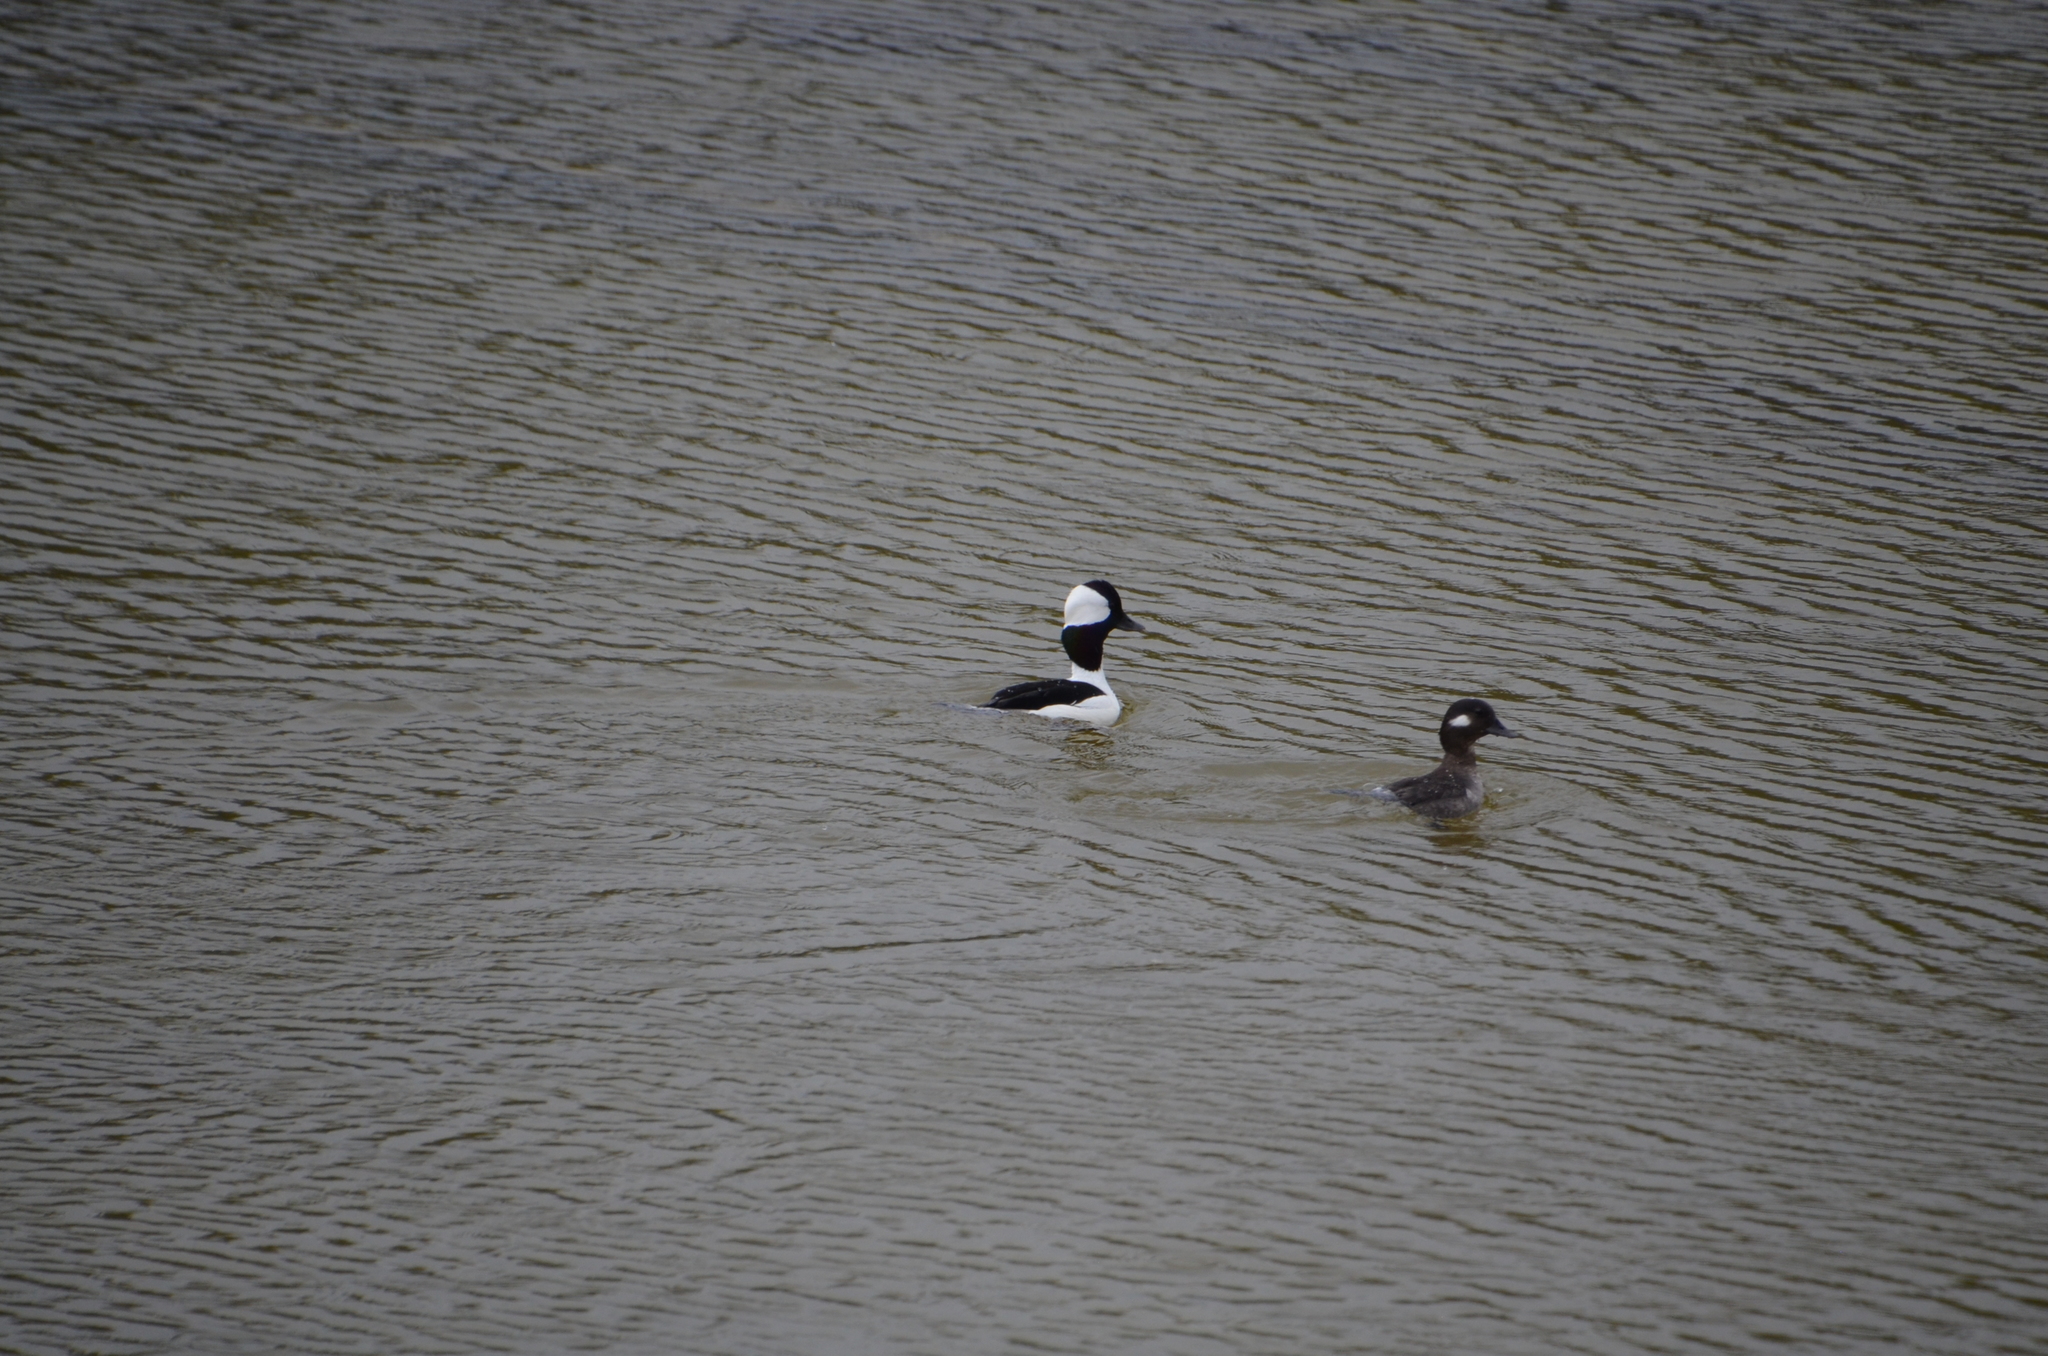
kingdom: Animalia
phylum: Chordata
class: Aves
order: Anseriformes
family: Anatidae
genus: Bucephala
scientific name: Bucephala albeola
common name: Bufflehead
